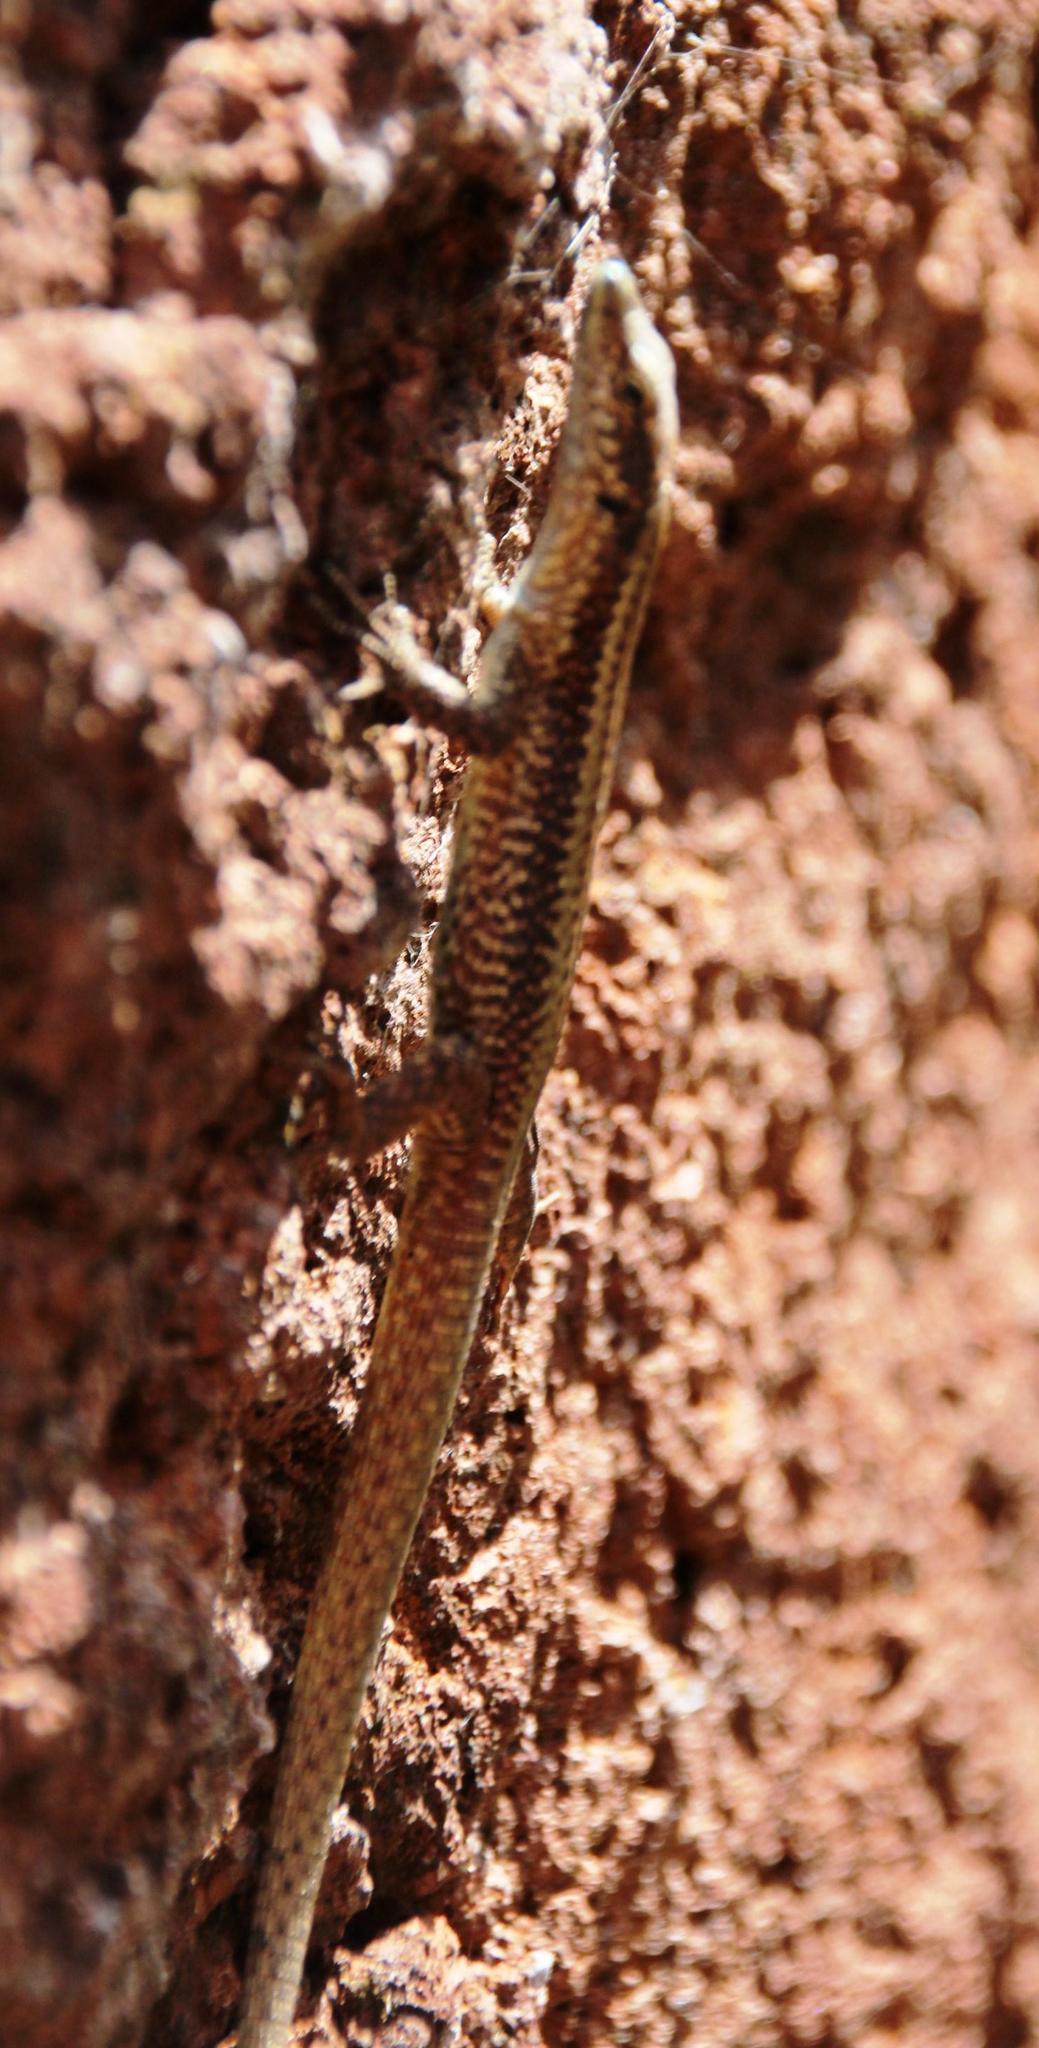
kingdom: Animalia
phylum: Chordata
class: Squamata
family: Lacertidae
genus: Teira
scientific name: Teira dugesii
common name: Madeira lizard
